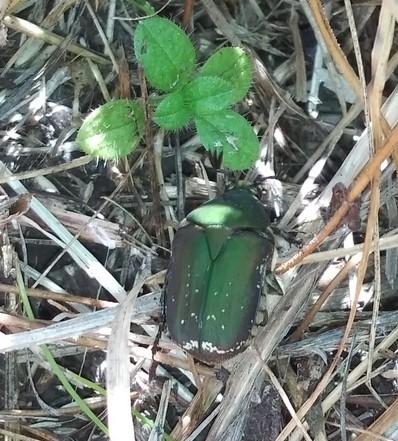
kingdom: Animalia
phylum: Arthropoda
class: Insecta
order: Coleoptera
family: Scarabaeidae
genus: Euphoria
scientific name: Euphoria herbacea
